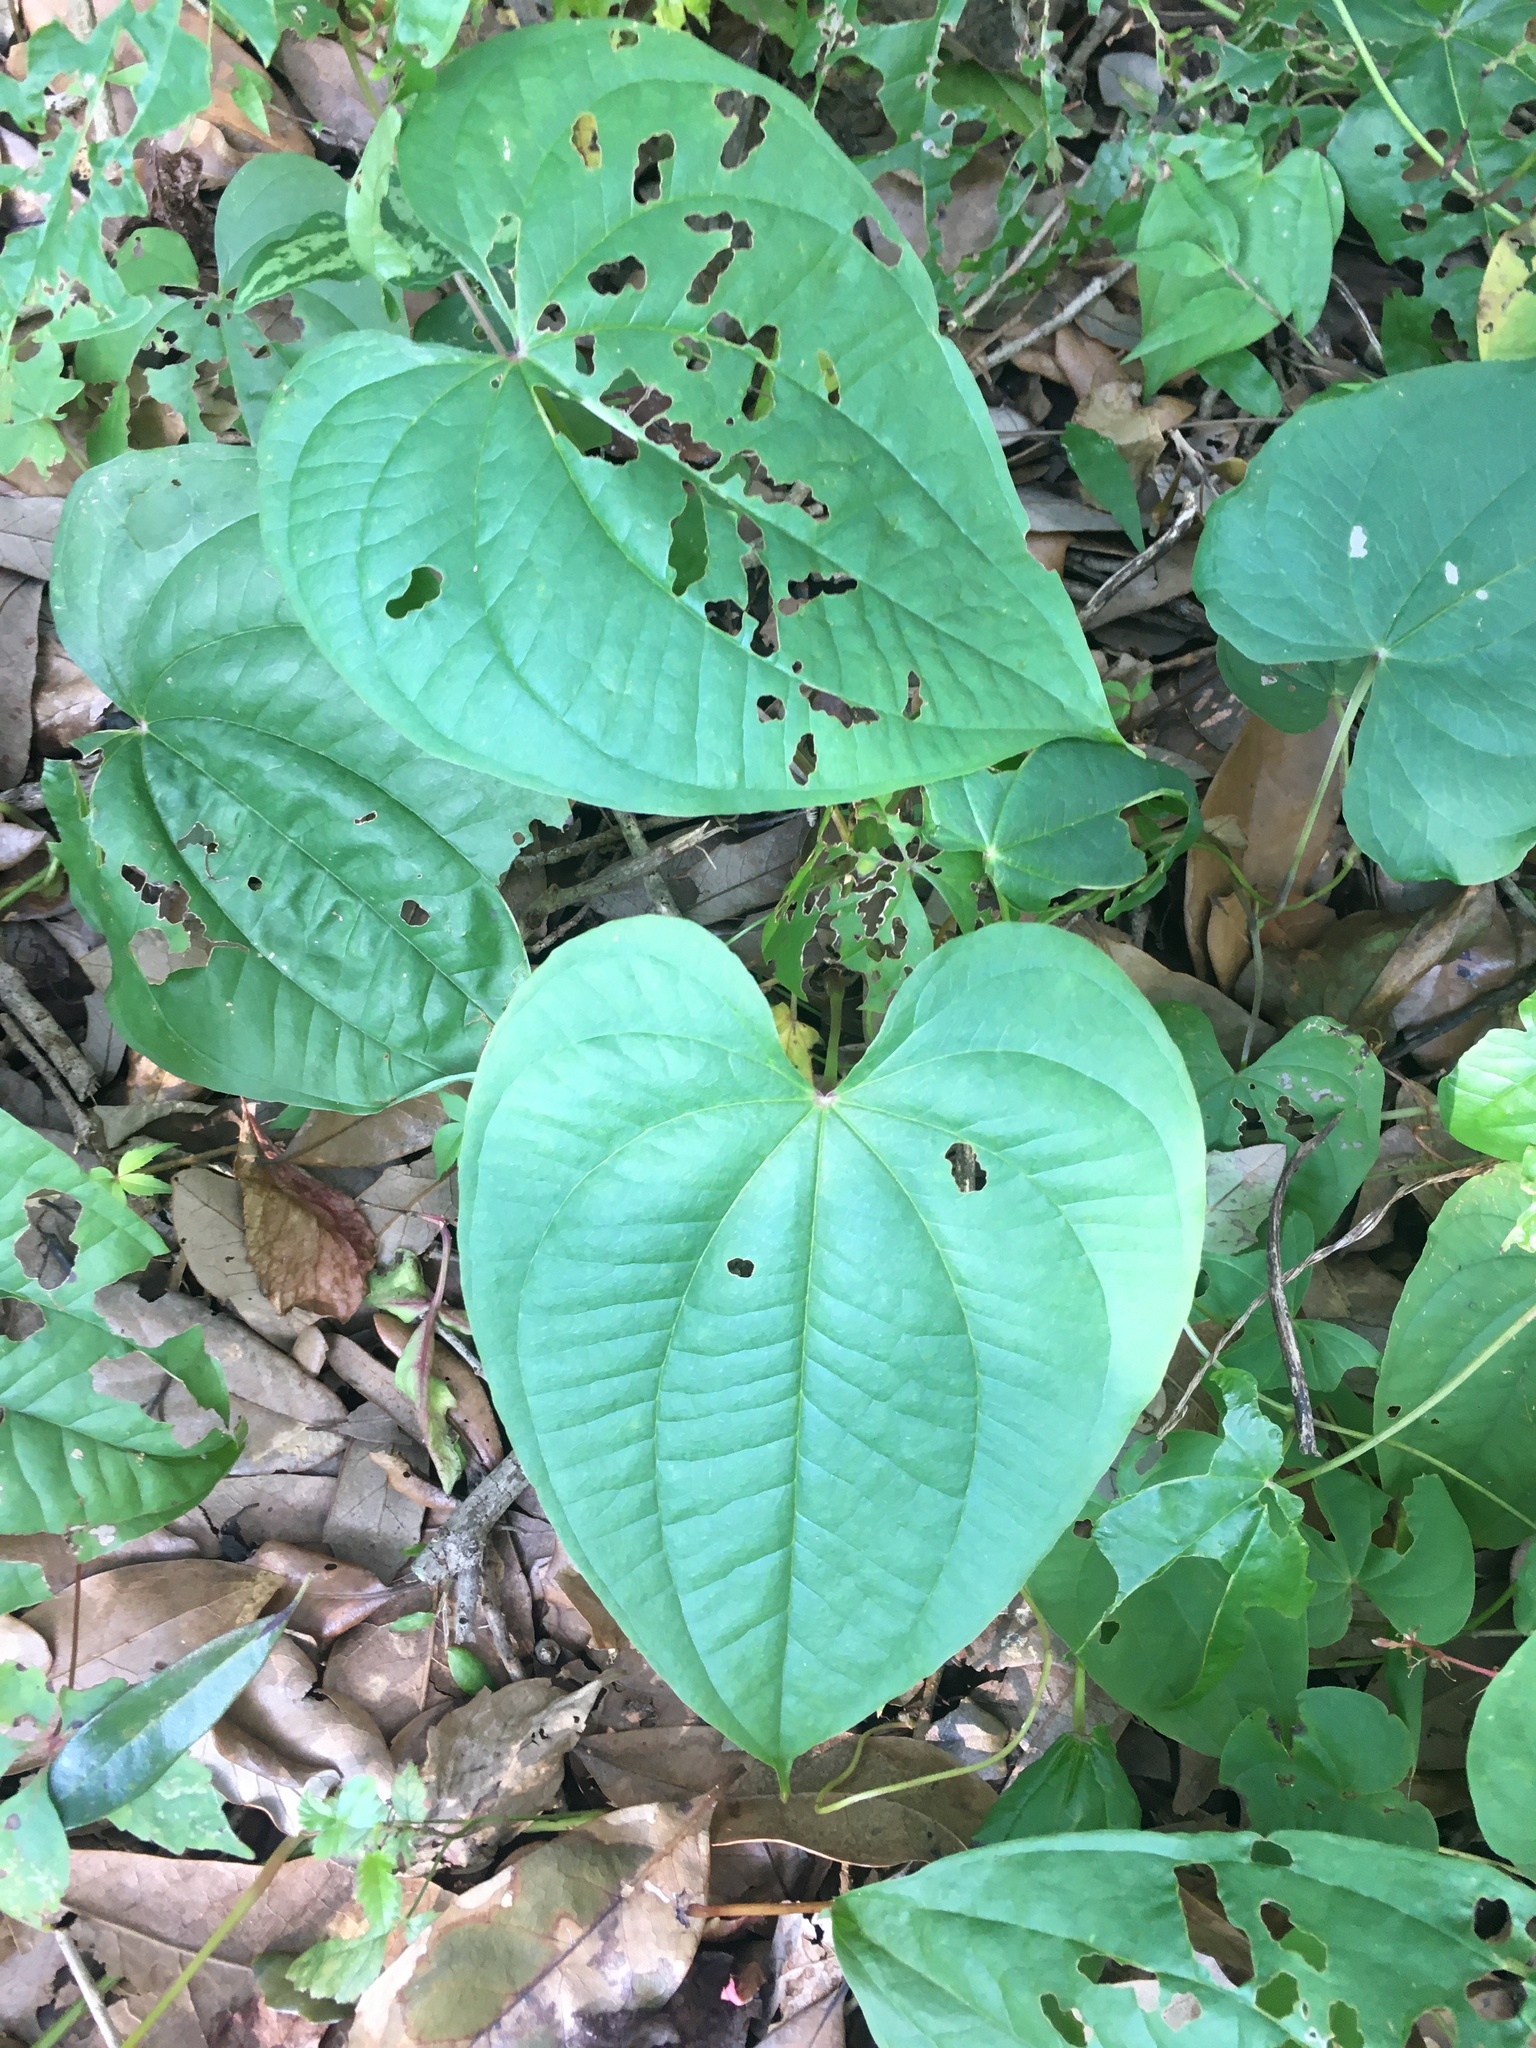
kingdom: Plantae
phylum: Tracheophyta
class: Liliopsida
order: Dioscoreales
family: Dioscoreaceae
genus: Dioscorea
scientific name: Dioscorea bulbifera
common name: Air yam
